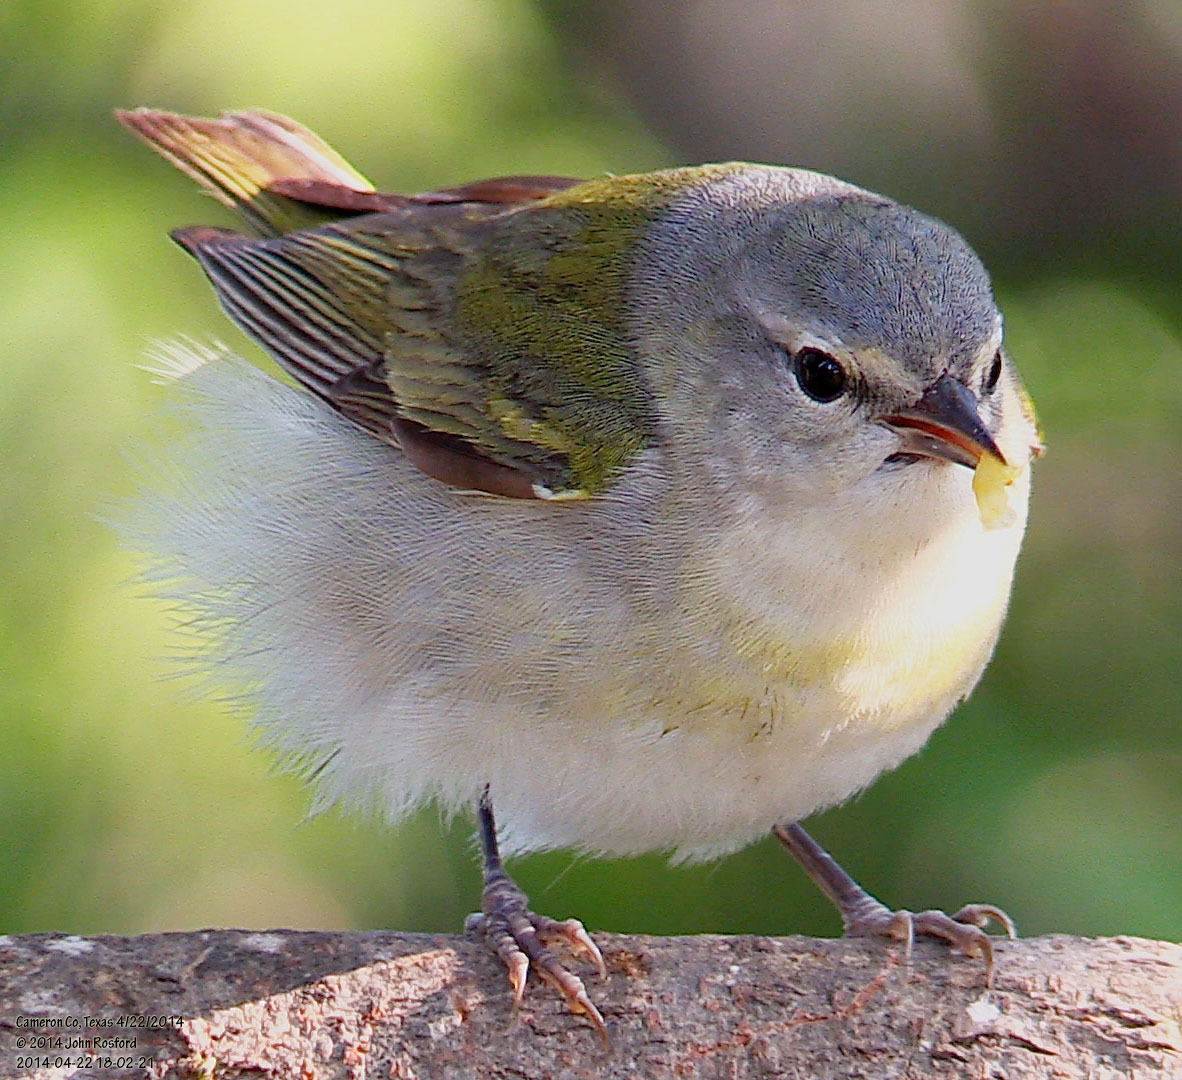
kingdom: Animalia
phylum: Chordata
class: Aves
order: Passeriformes
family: Parulidae
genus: Leiothlypis
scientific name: Leiothlypis peregrina
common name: Tennessee warbler
